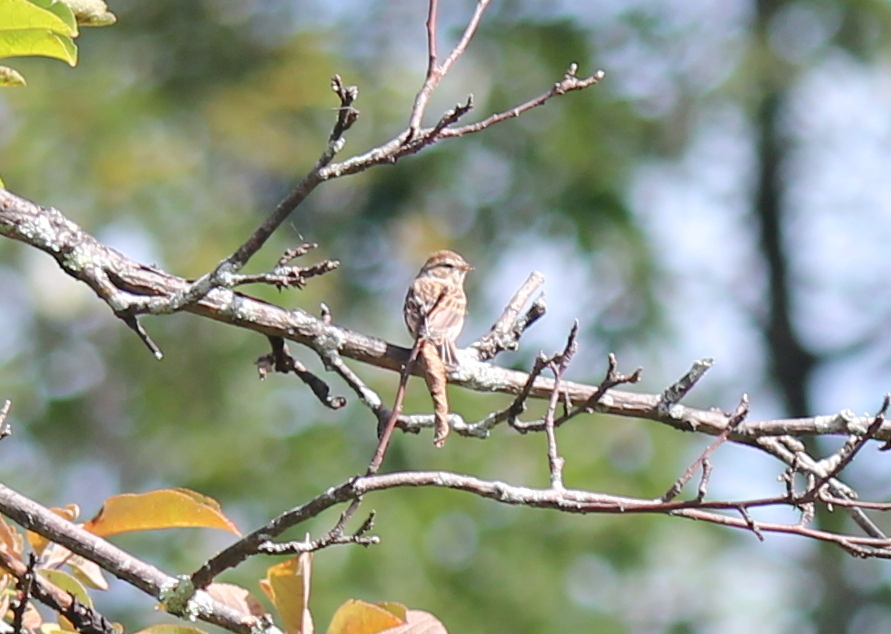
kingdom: Animalia
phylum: Chordata
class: Aves
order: Passeriformes
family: Passerellidae
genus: Spizella
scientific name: Spizella passerina
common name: Chipping sparrow
